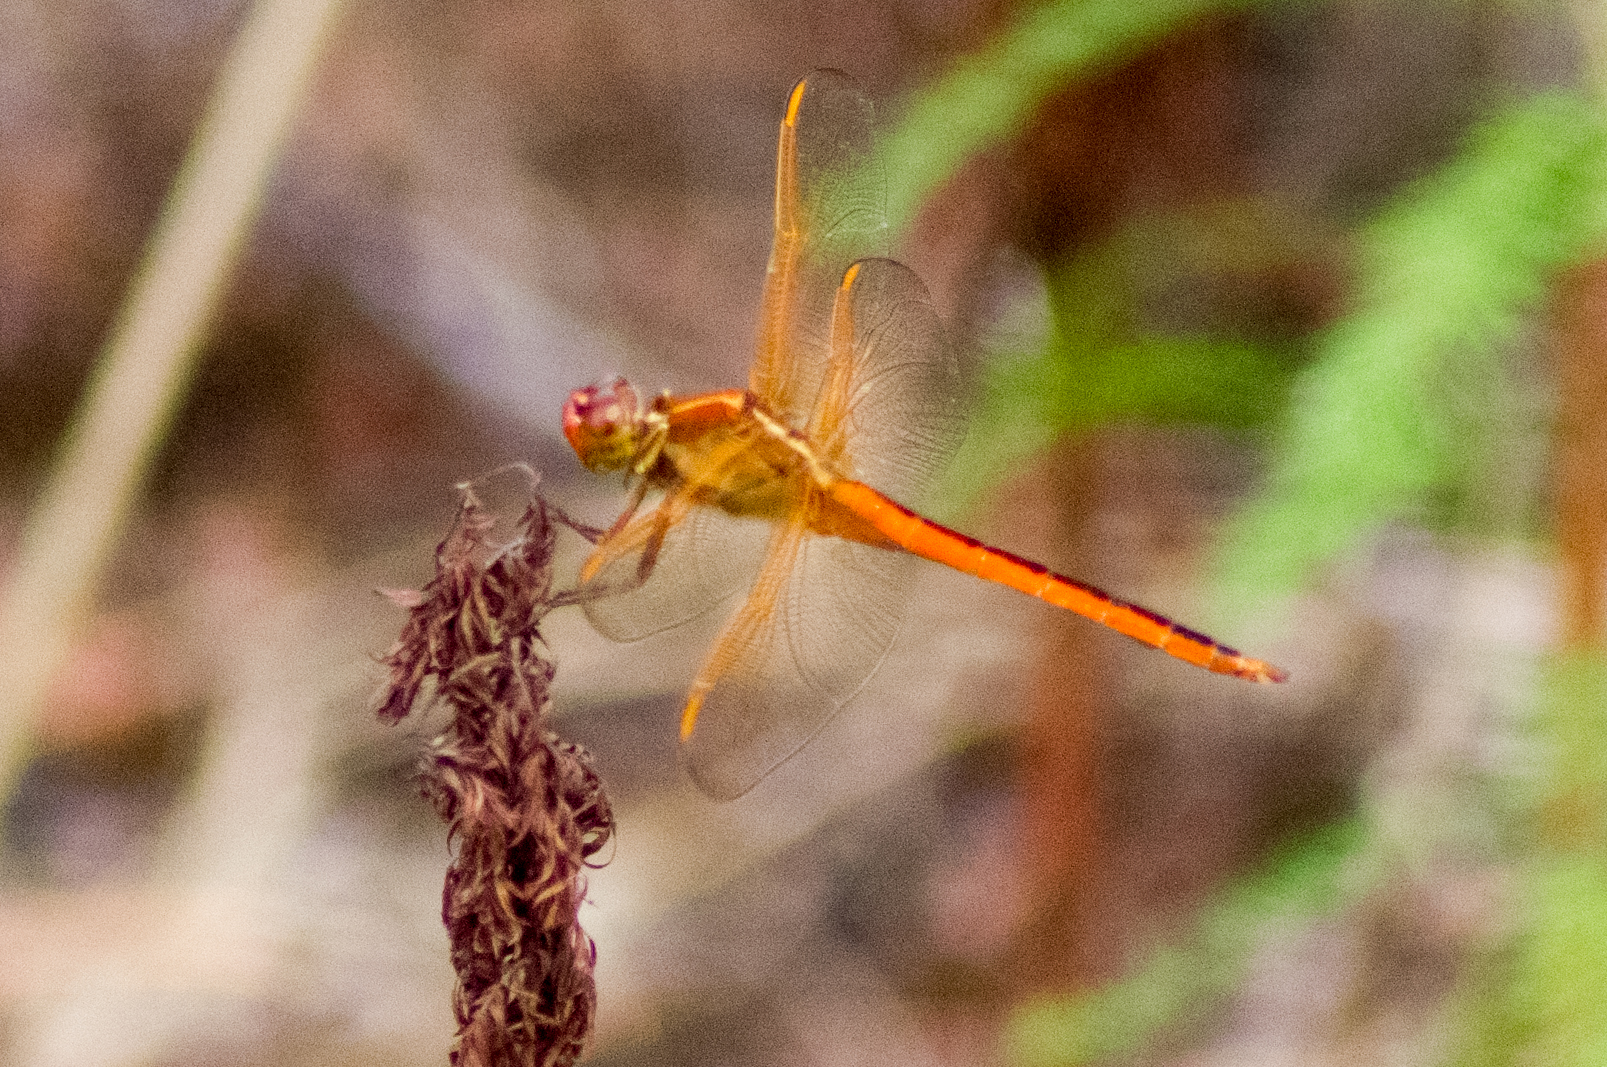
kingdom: Animalia
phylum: Arthropoda
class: Insecta
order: Odonata
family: Libellulidae
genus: Libellula
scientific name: Libellula needhami
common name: Needham's skimmer
